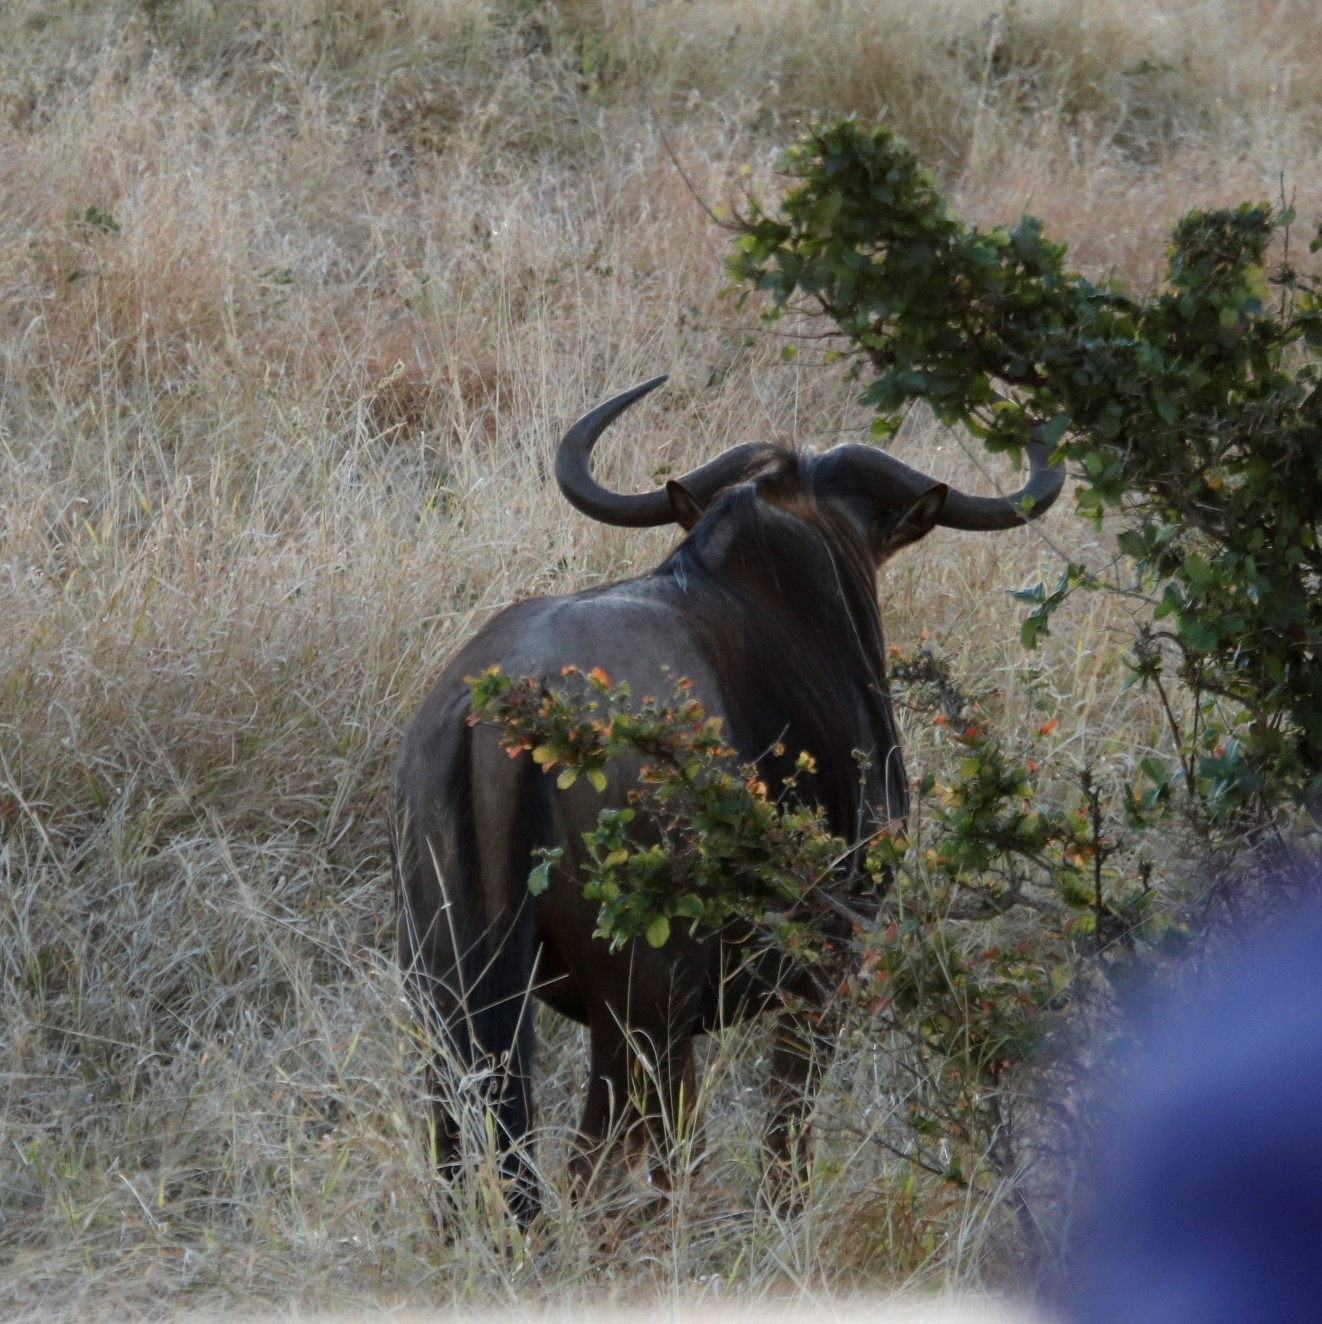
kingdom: Animalia
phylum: Chordata
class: Mammalia
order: Artiodactyla
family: Bovidae
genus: Connochaetes
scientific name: Connochaetes taurinus
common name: Blue wildebeest
